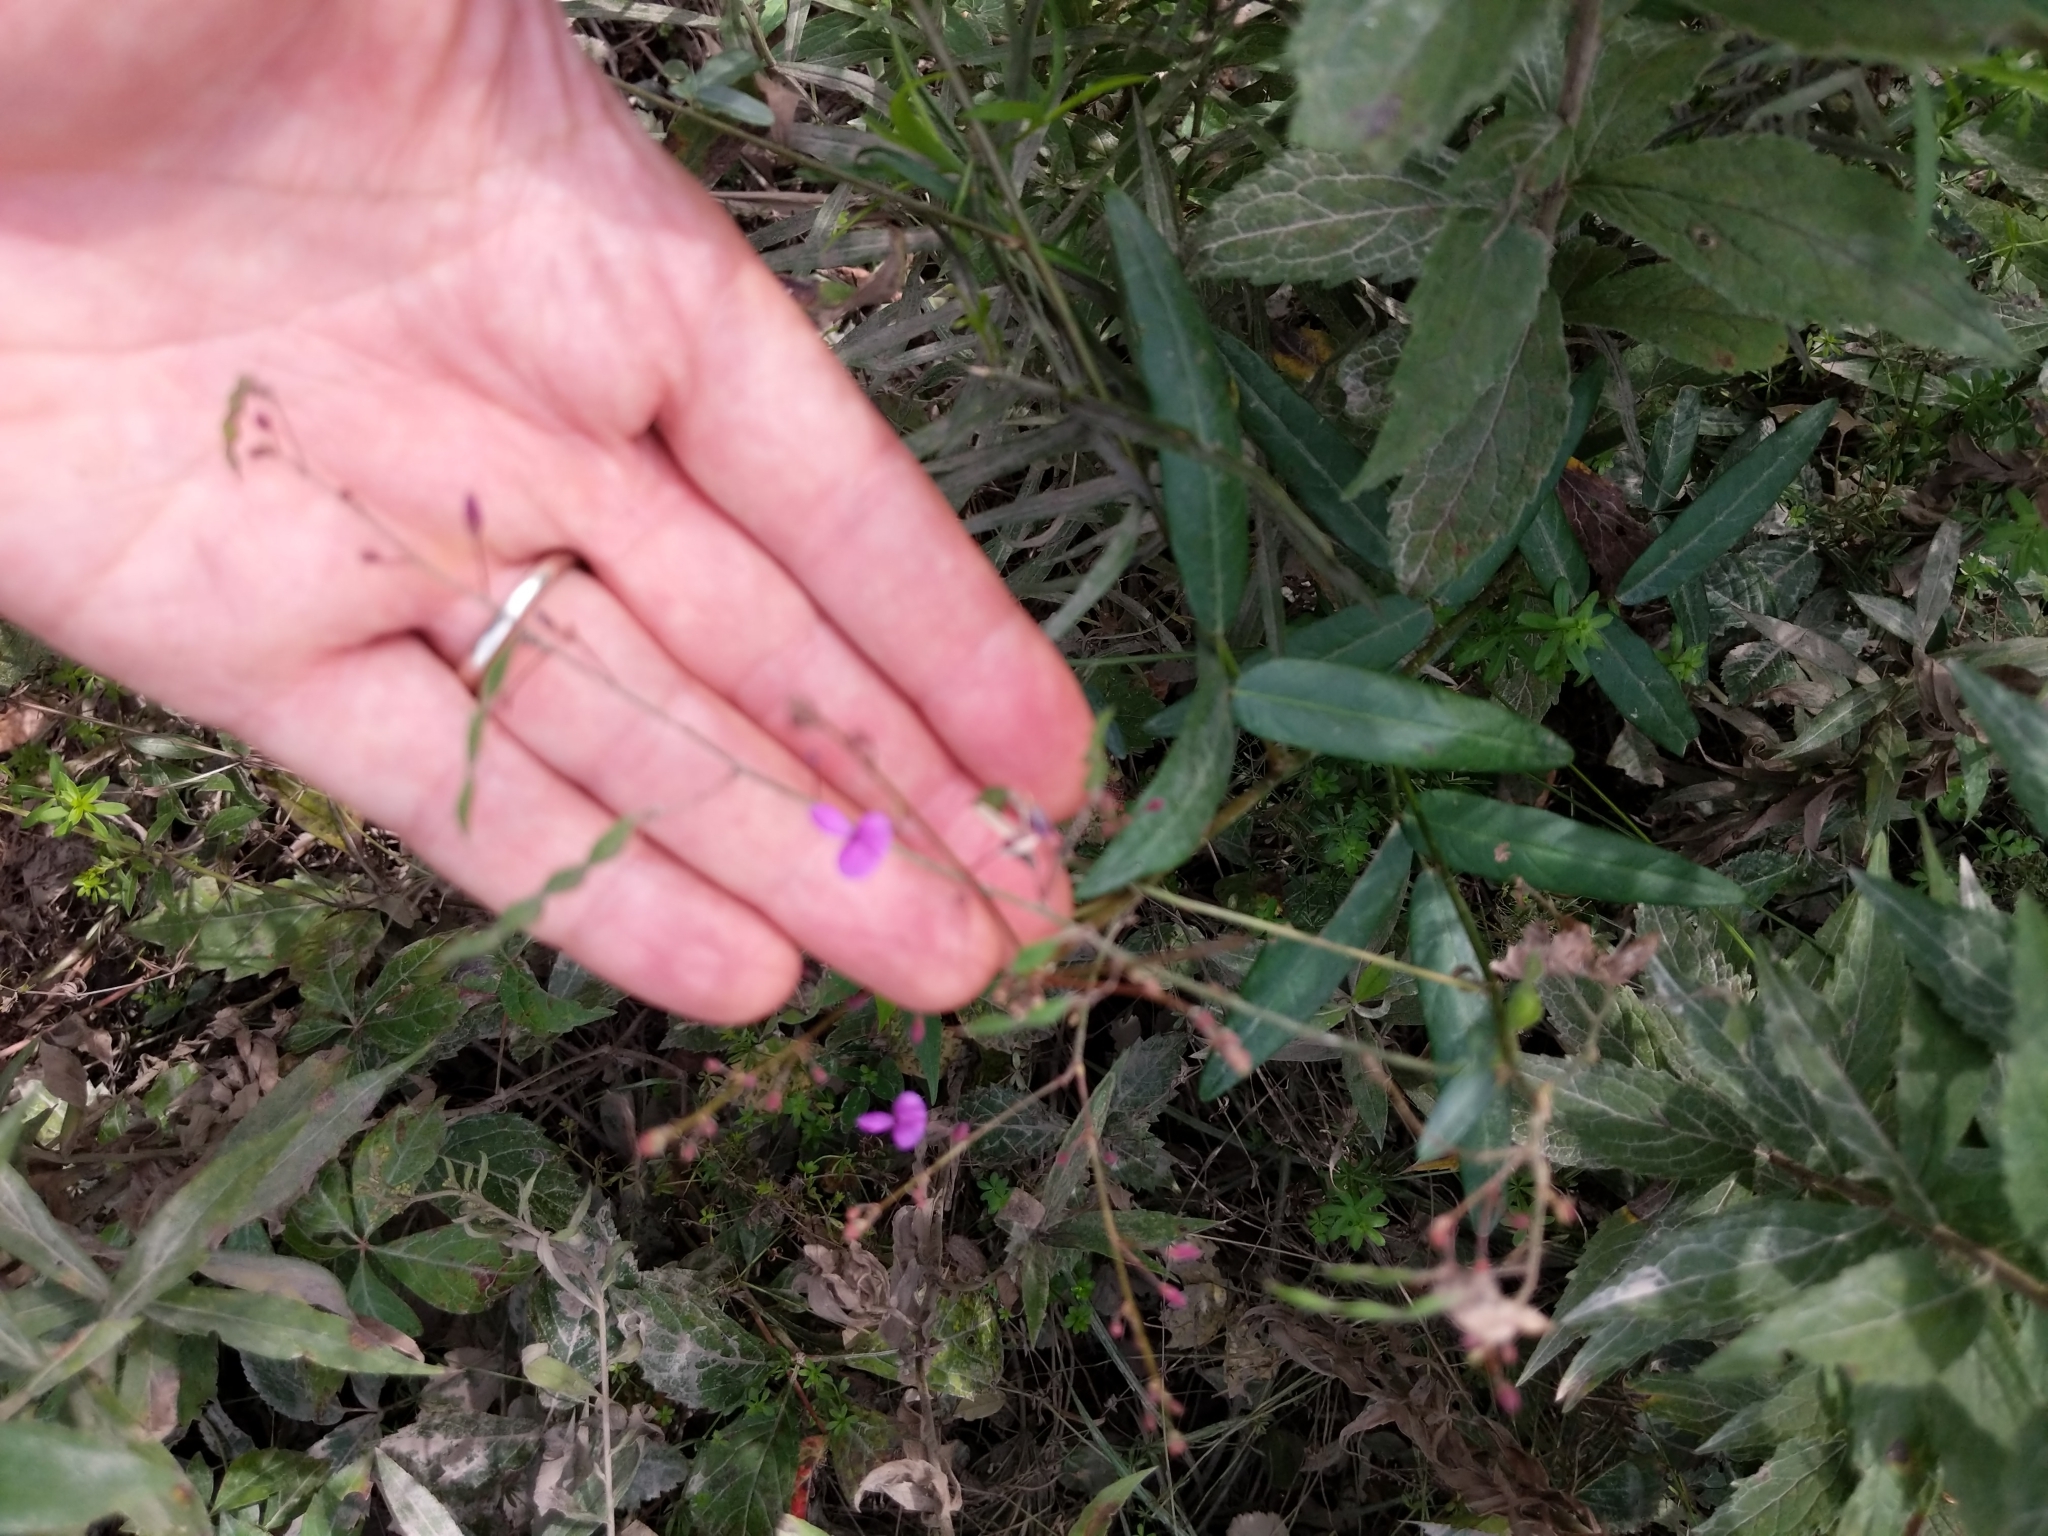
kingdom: Plantae
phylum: Tracheophyta
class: Magnoliopsida
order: Fabales
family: Fabaceae
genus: Desmodium
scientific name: Desmodium paniculatum
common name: Panicled tick-clover
